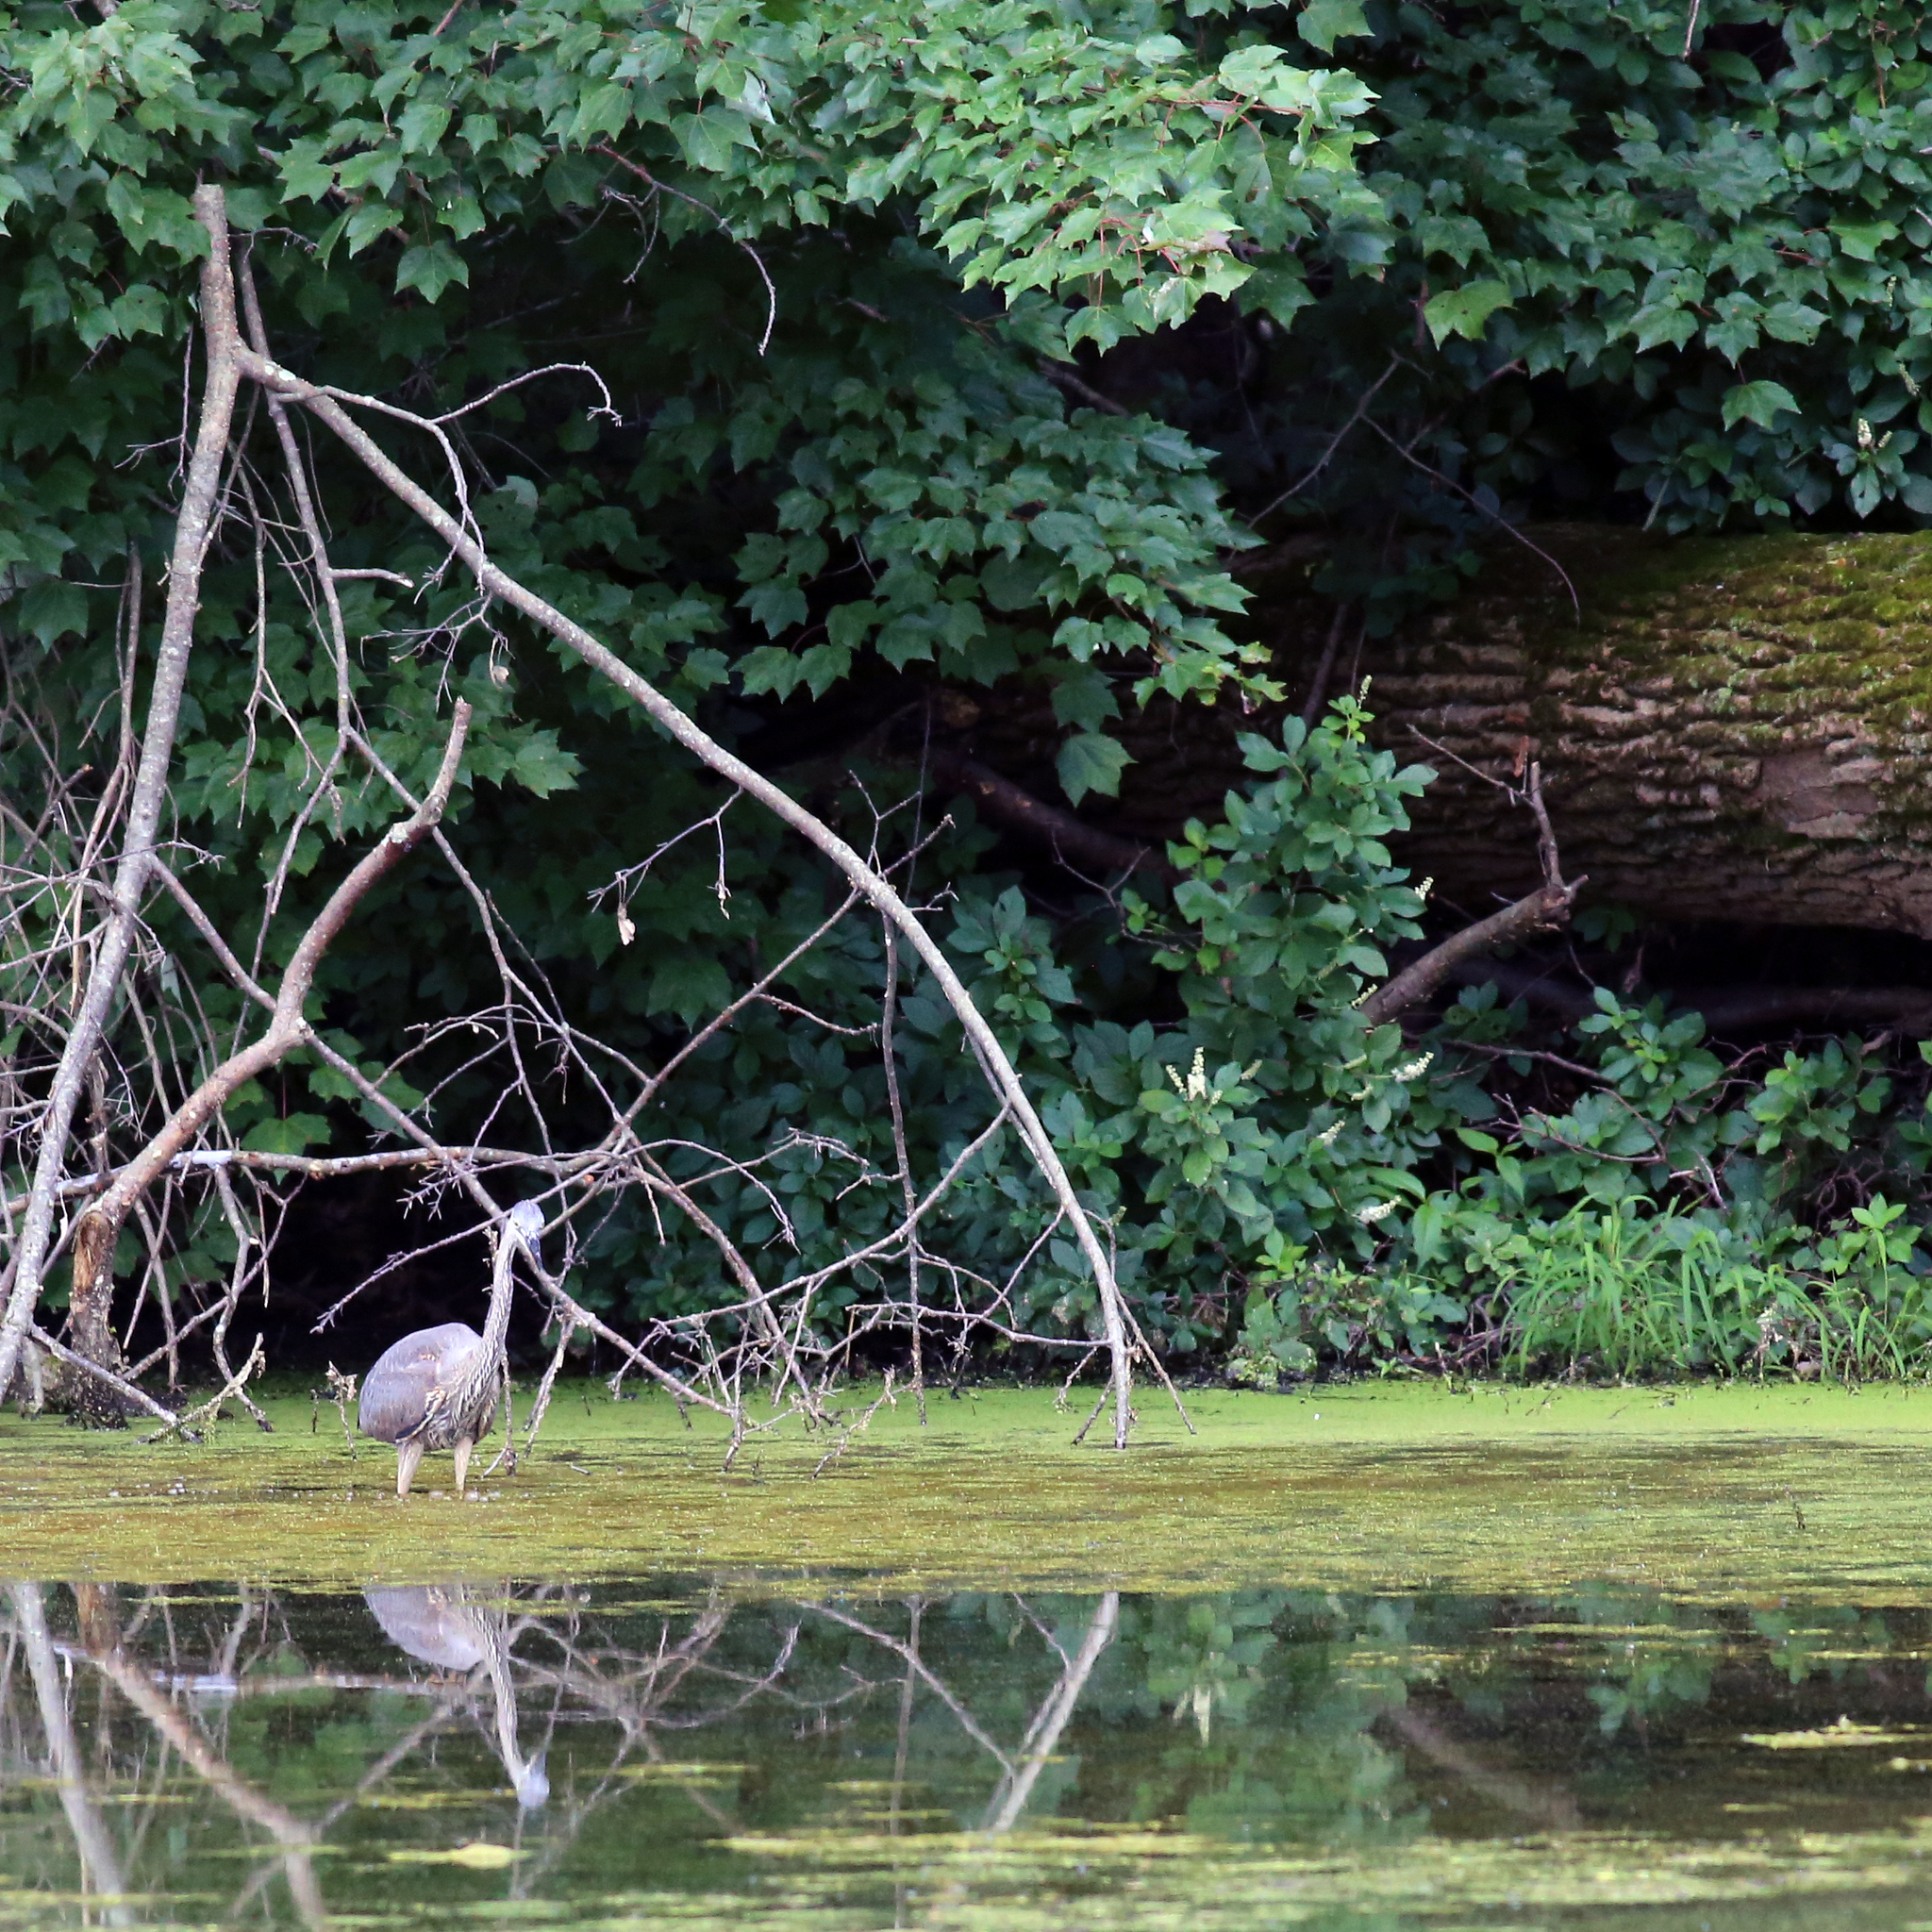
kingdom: Animalia
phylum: Chordata
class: Aves
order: Pelecaniformes
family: Ardeidae
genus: Ardea
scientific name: Ardea herodias
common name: Great blue heron
